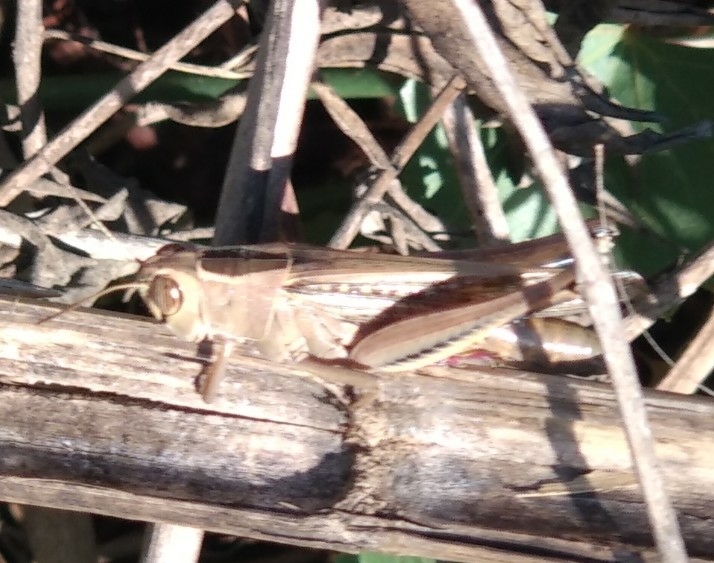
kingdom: Animalia
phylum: Arthropoda
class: Insecta
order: Orthoptera
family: Acrididae
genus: Eyprepocnemis
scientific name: Eyprepocnemis plorans
